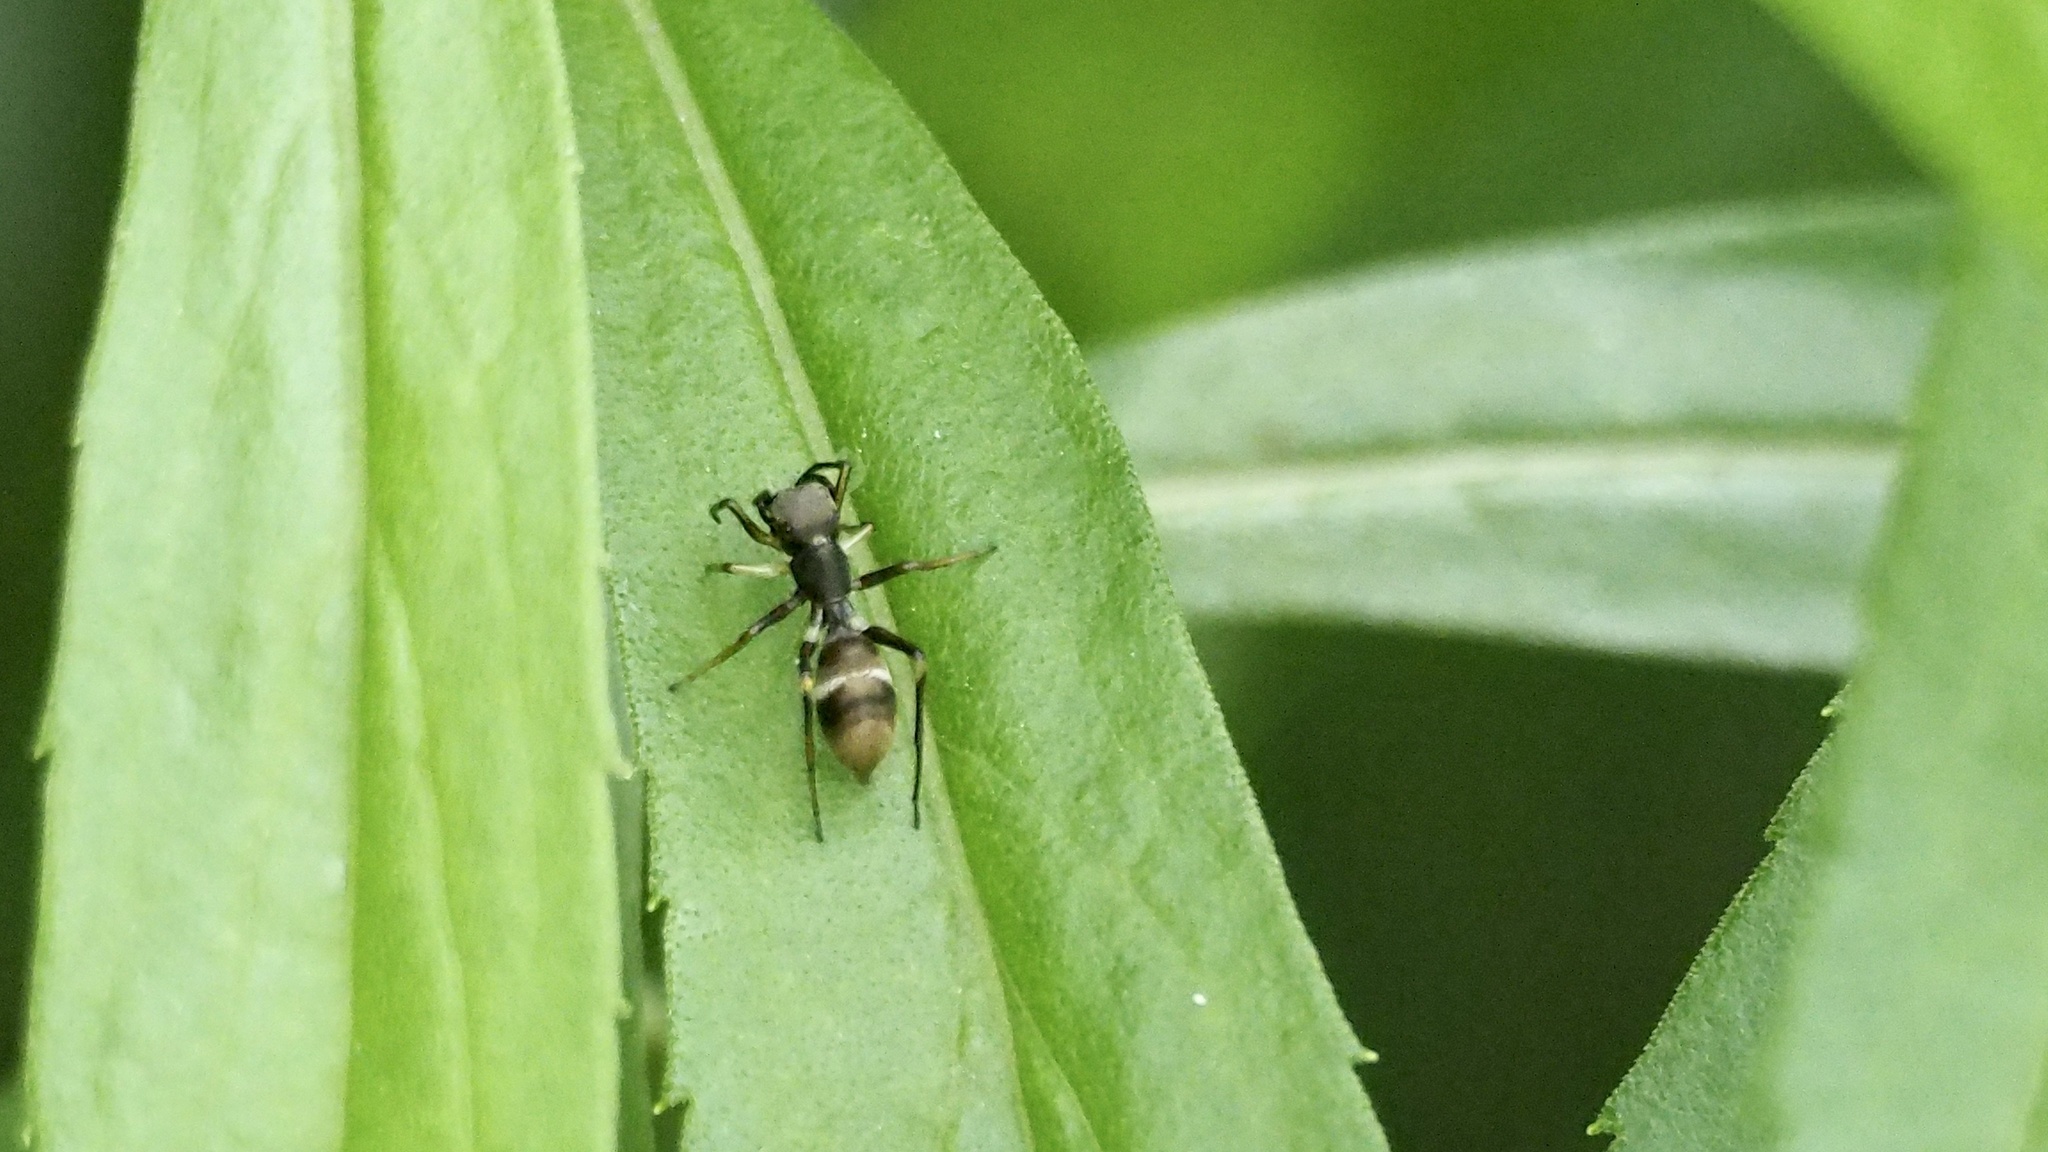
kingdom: Animalia
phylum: Arthropoda
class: Arachnida
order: Araneae
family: Salticidae
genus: Myrmarachne
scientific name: Myrmarachne japonica
